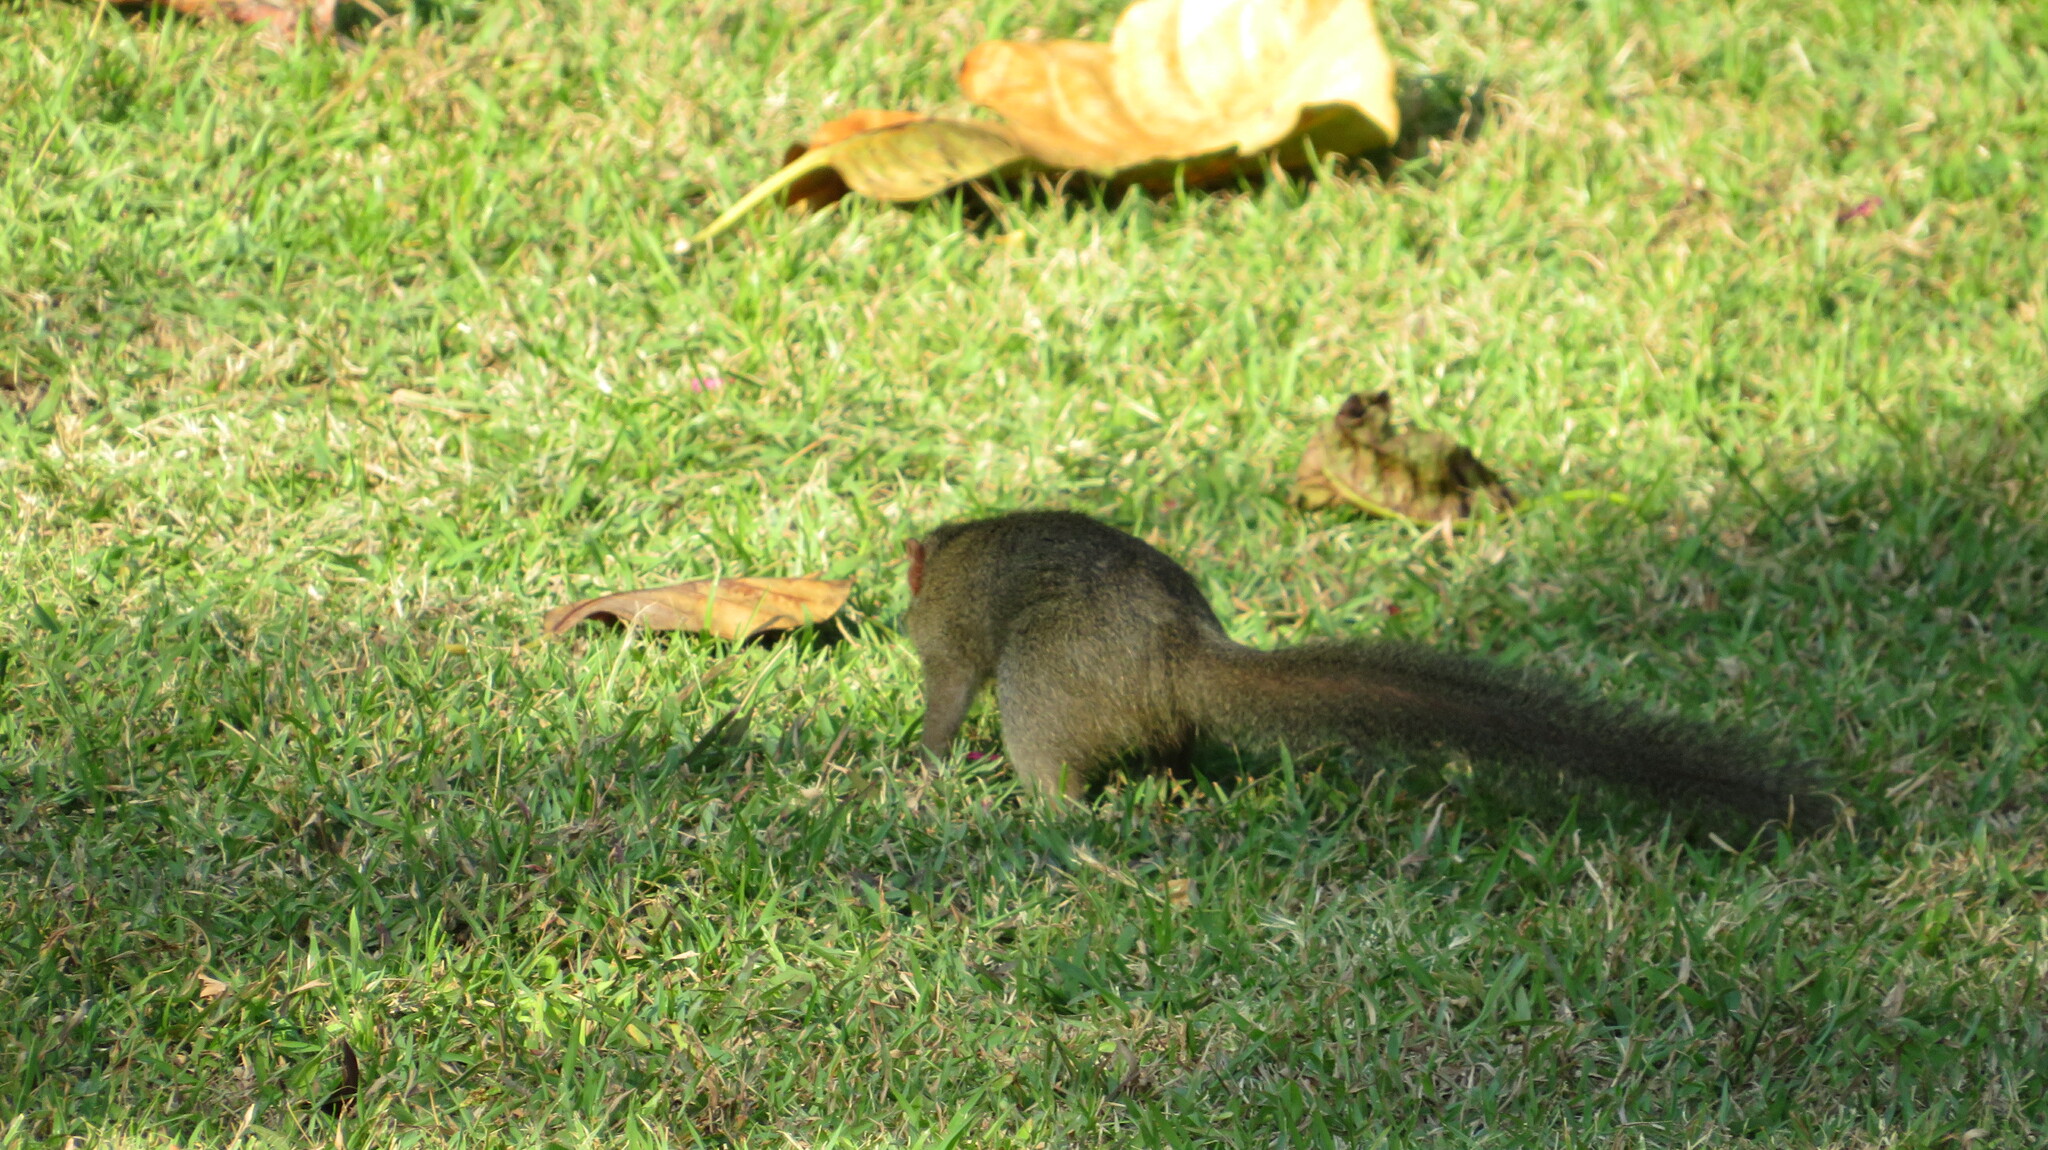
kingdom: Animalia
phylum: Chordata
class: Mammalia
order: Scandentia
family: Tupaiidae
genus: Tupaia
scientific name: Tupaia belangeri
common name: Northern treeshrew
